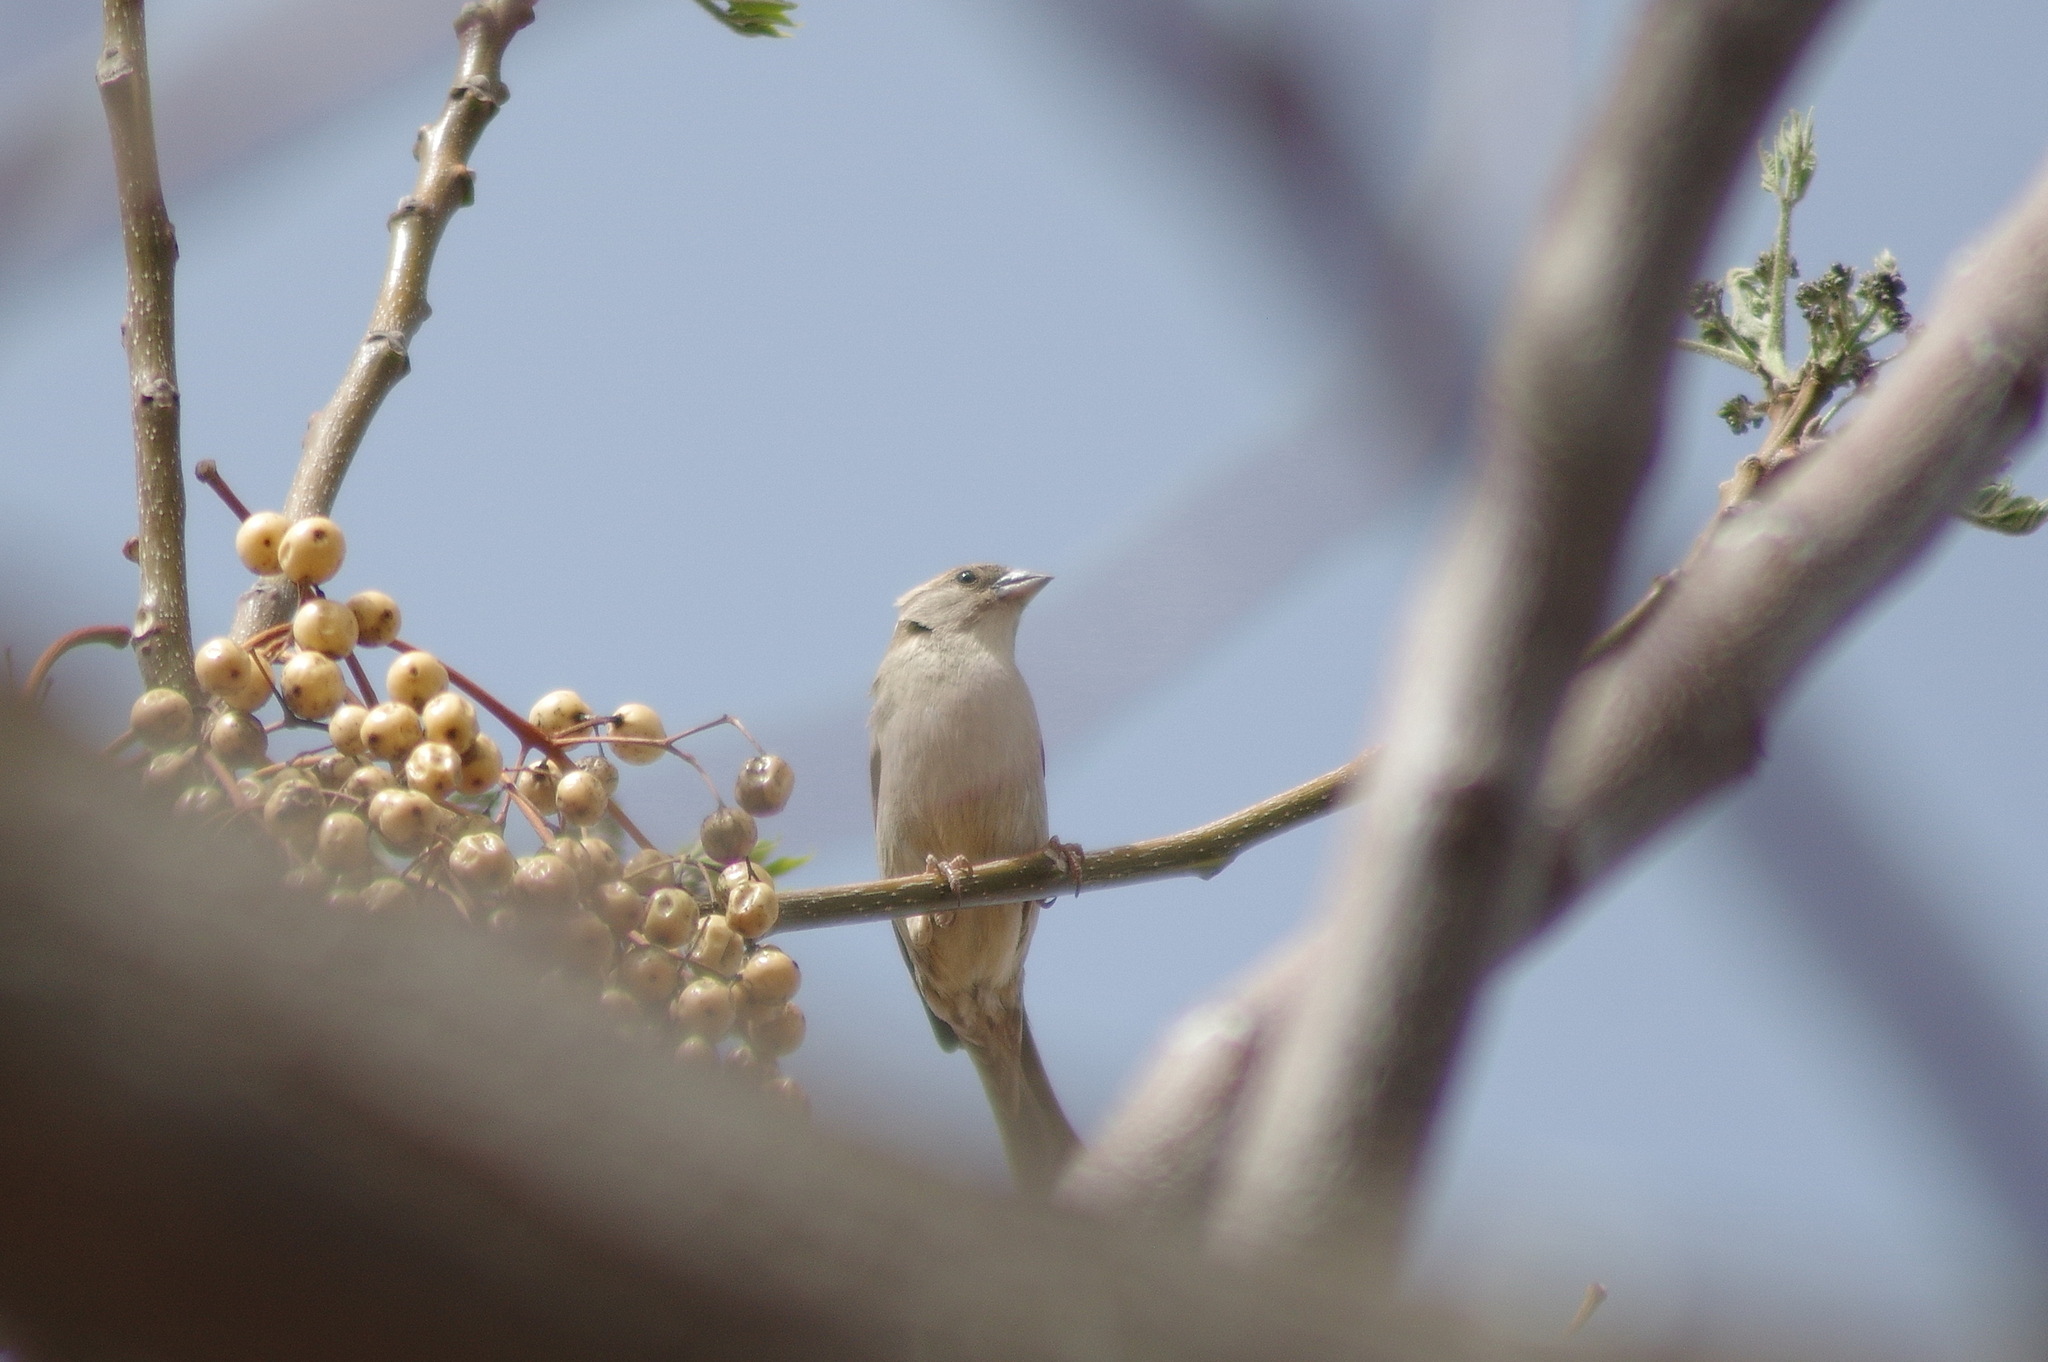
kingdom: Animalia
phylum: Chordata
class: Aves
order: Passeriformes
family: Passeridae
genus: Passer
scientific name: Passer domesticus
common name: House sparrow
